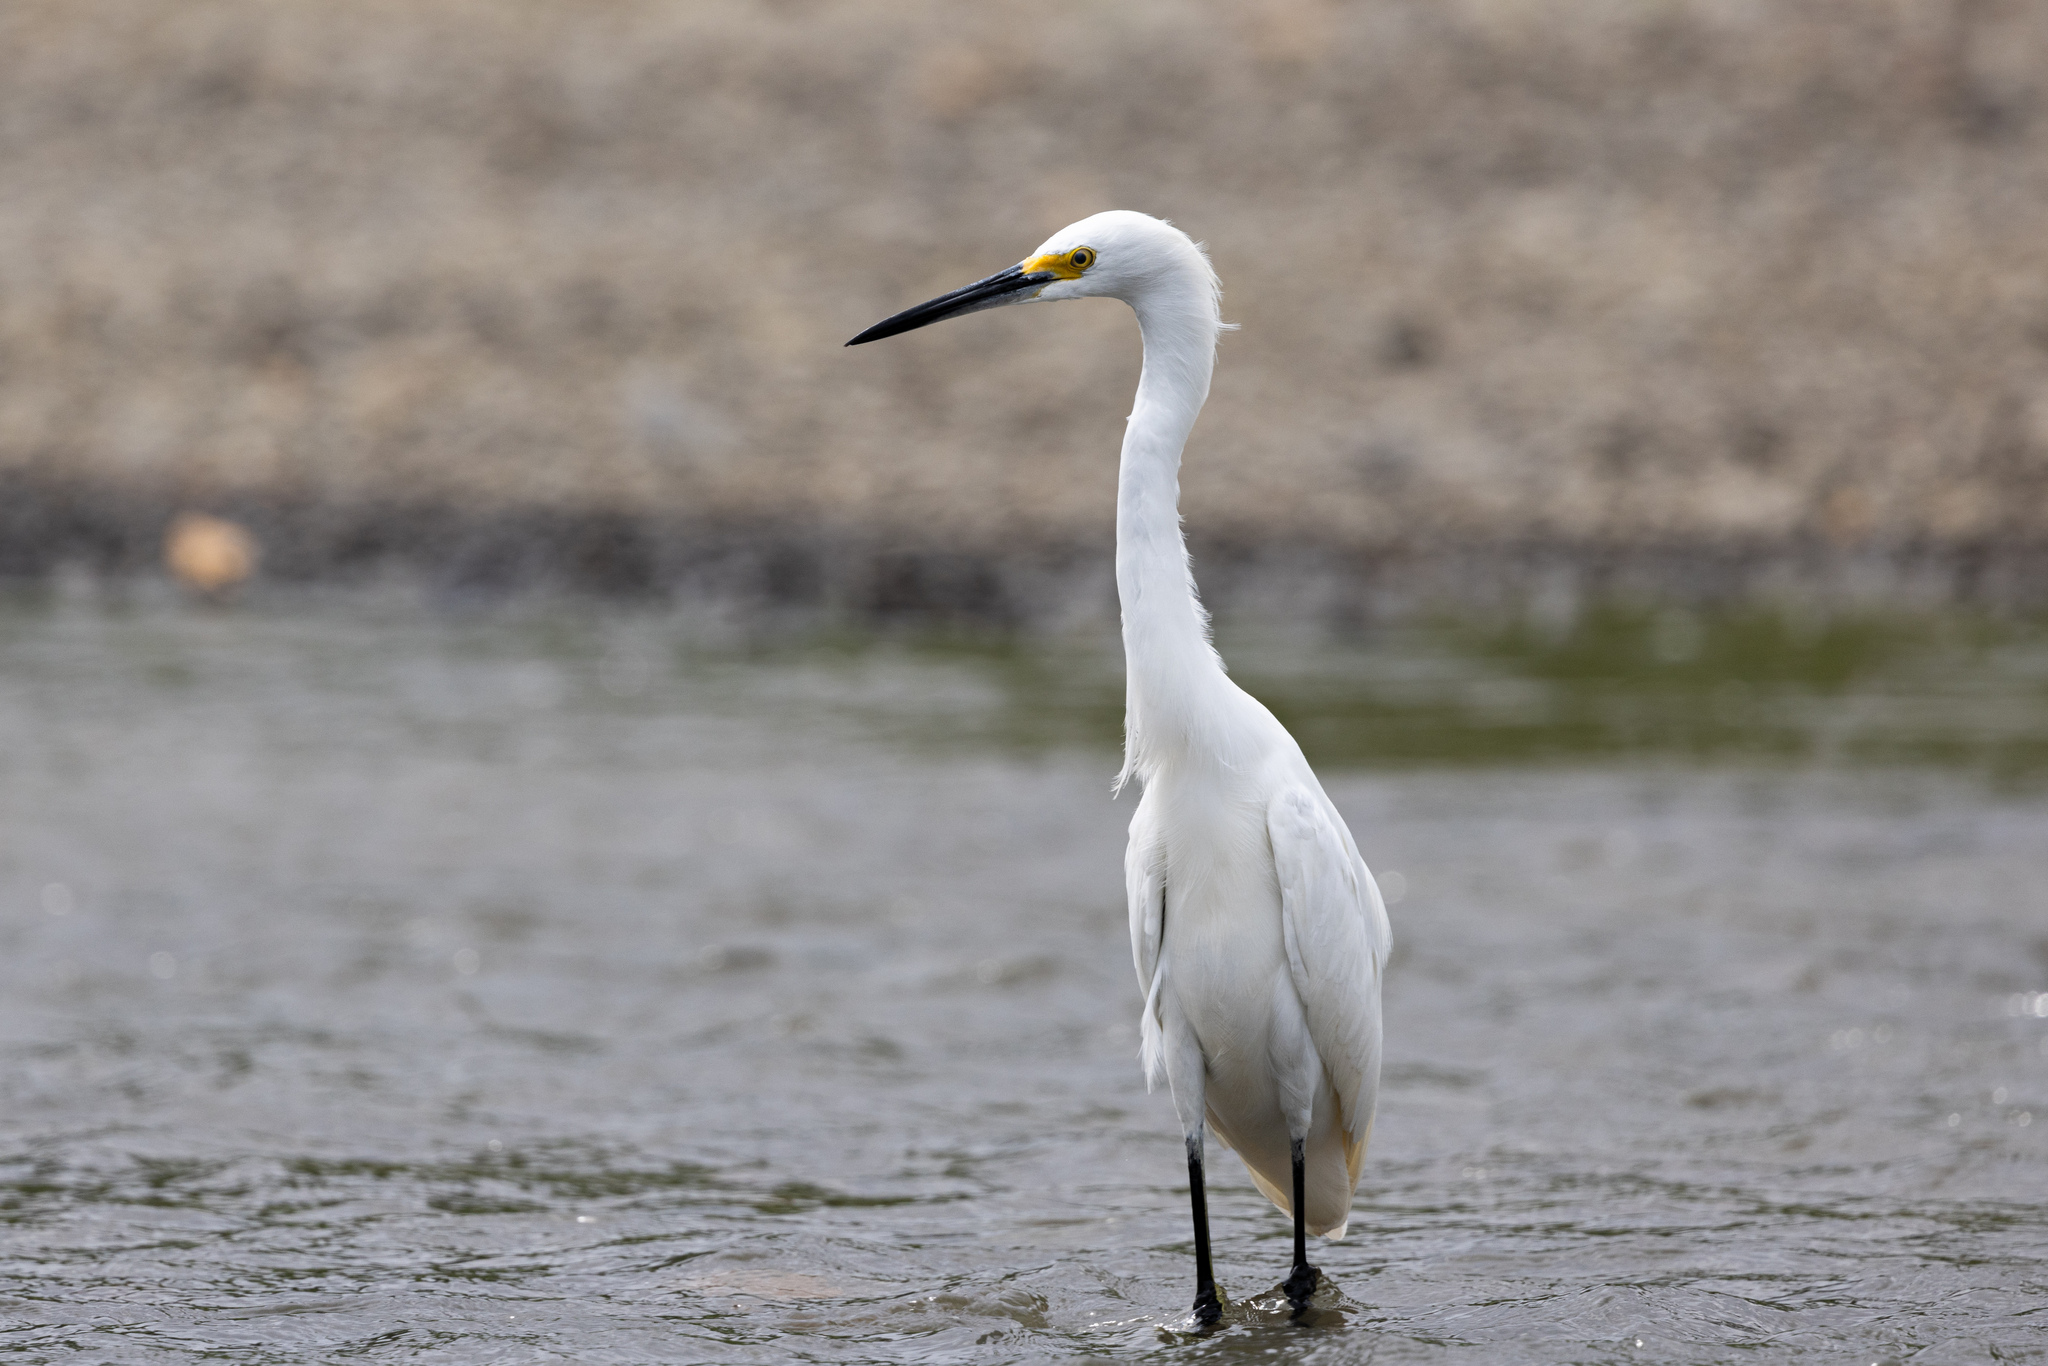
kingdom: Animalia
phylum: Chordata
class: Aves
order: Pelecaniformes
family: Ardeidae
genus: Egretta
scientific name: Egretta thula
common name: Snowy egret
